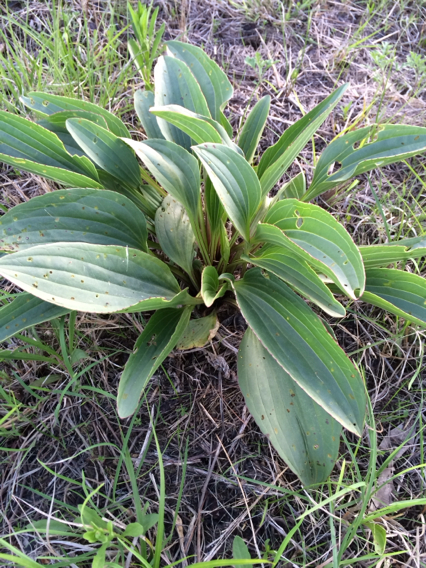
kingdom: Plantae
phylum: Tracheophyta
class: Magnoliopsida
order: Asterales
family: Asteraceae
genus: Arnoglossum
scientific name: Arnoglossum plantagineum
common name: Groove-stemmed indian-plantain
